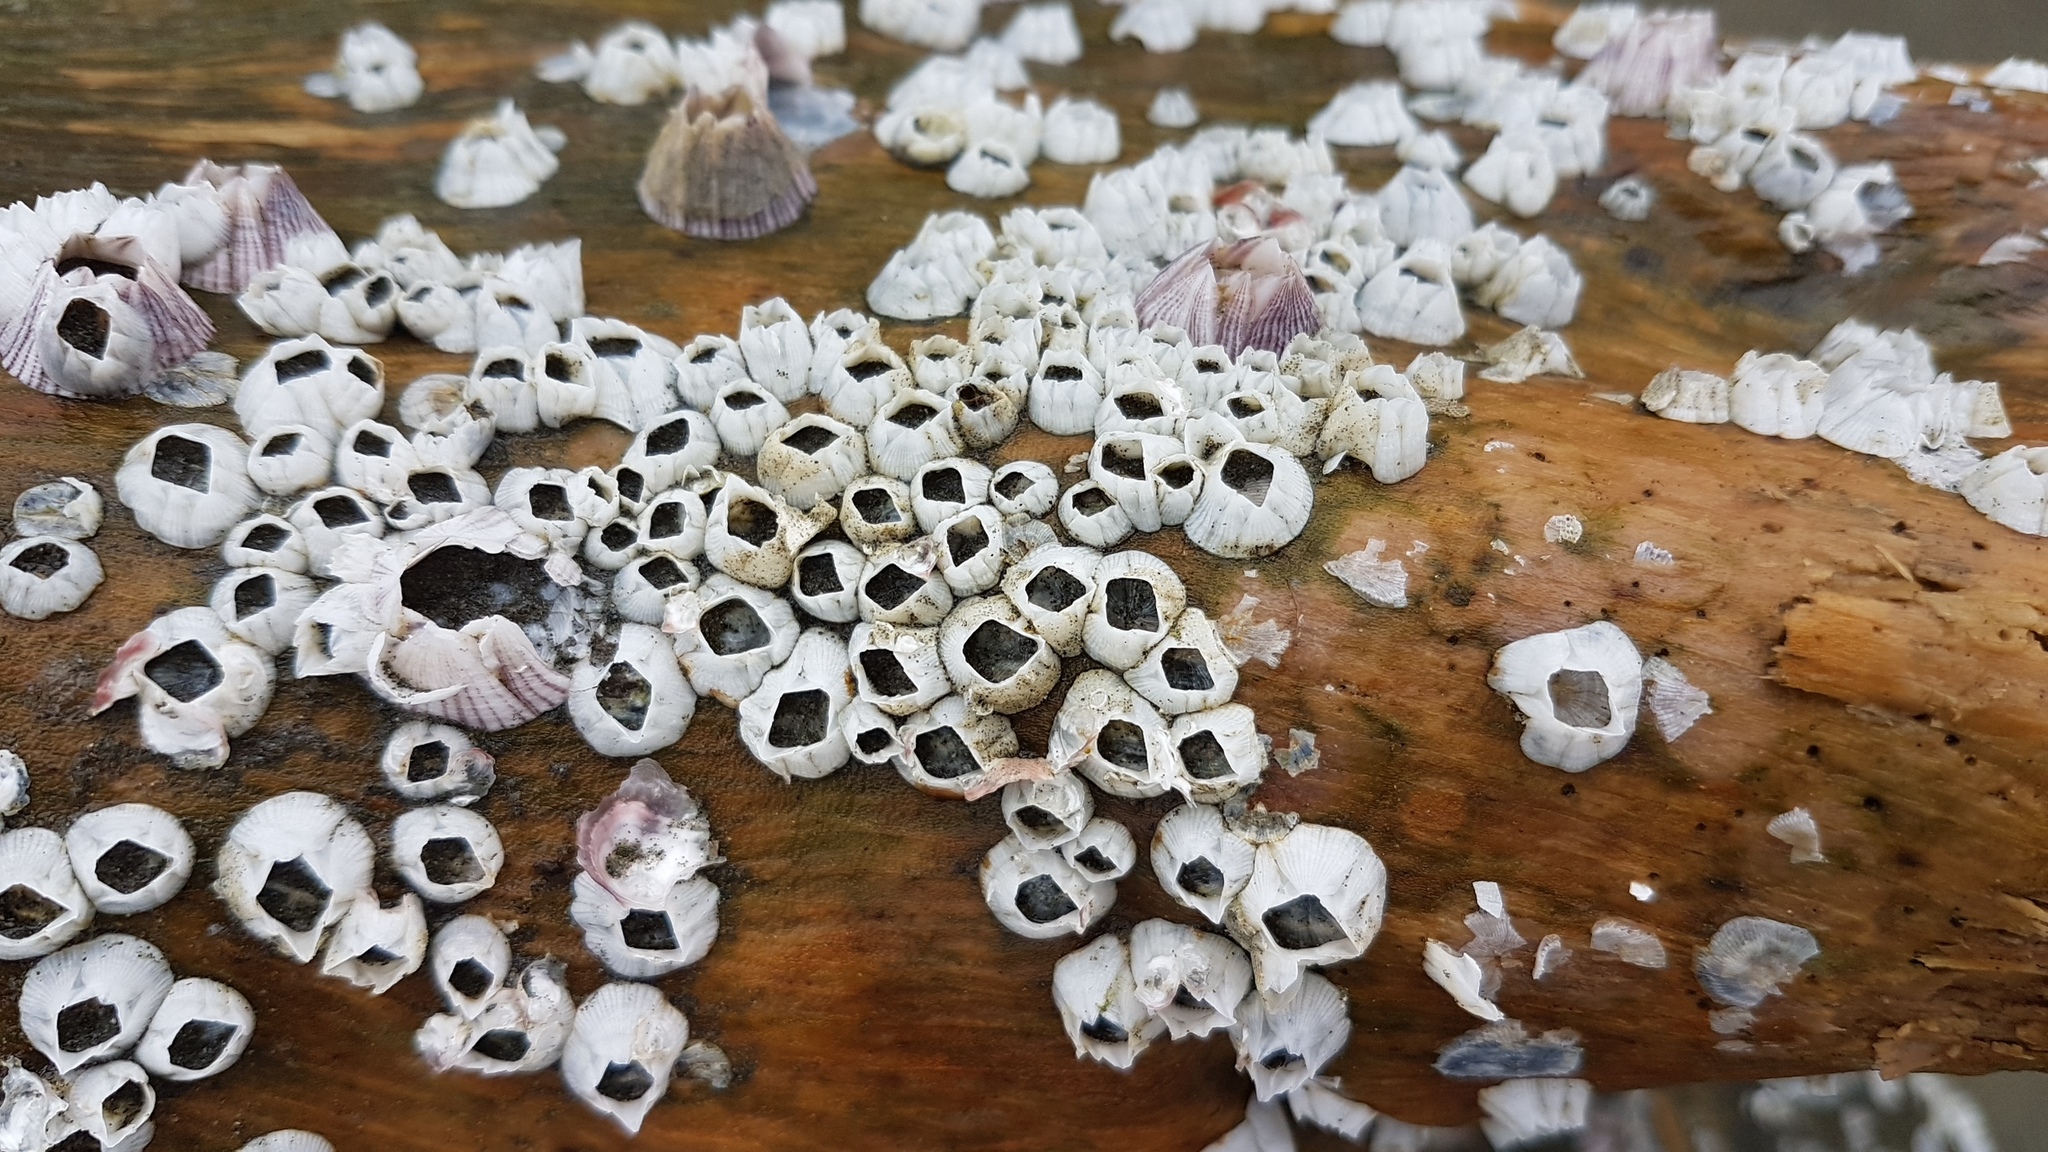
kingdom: Animalia
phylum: Arthropoda
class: Maxillopoda
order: Sessilia
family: Balanidae
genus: Amphibalanus
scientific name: Amphibalanus reticulatus
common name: Reticulated barnacle
